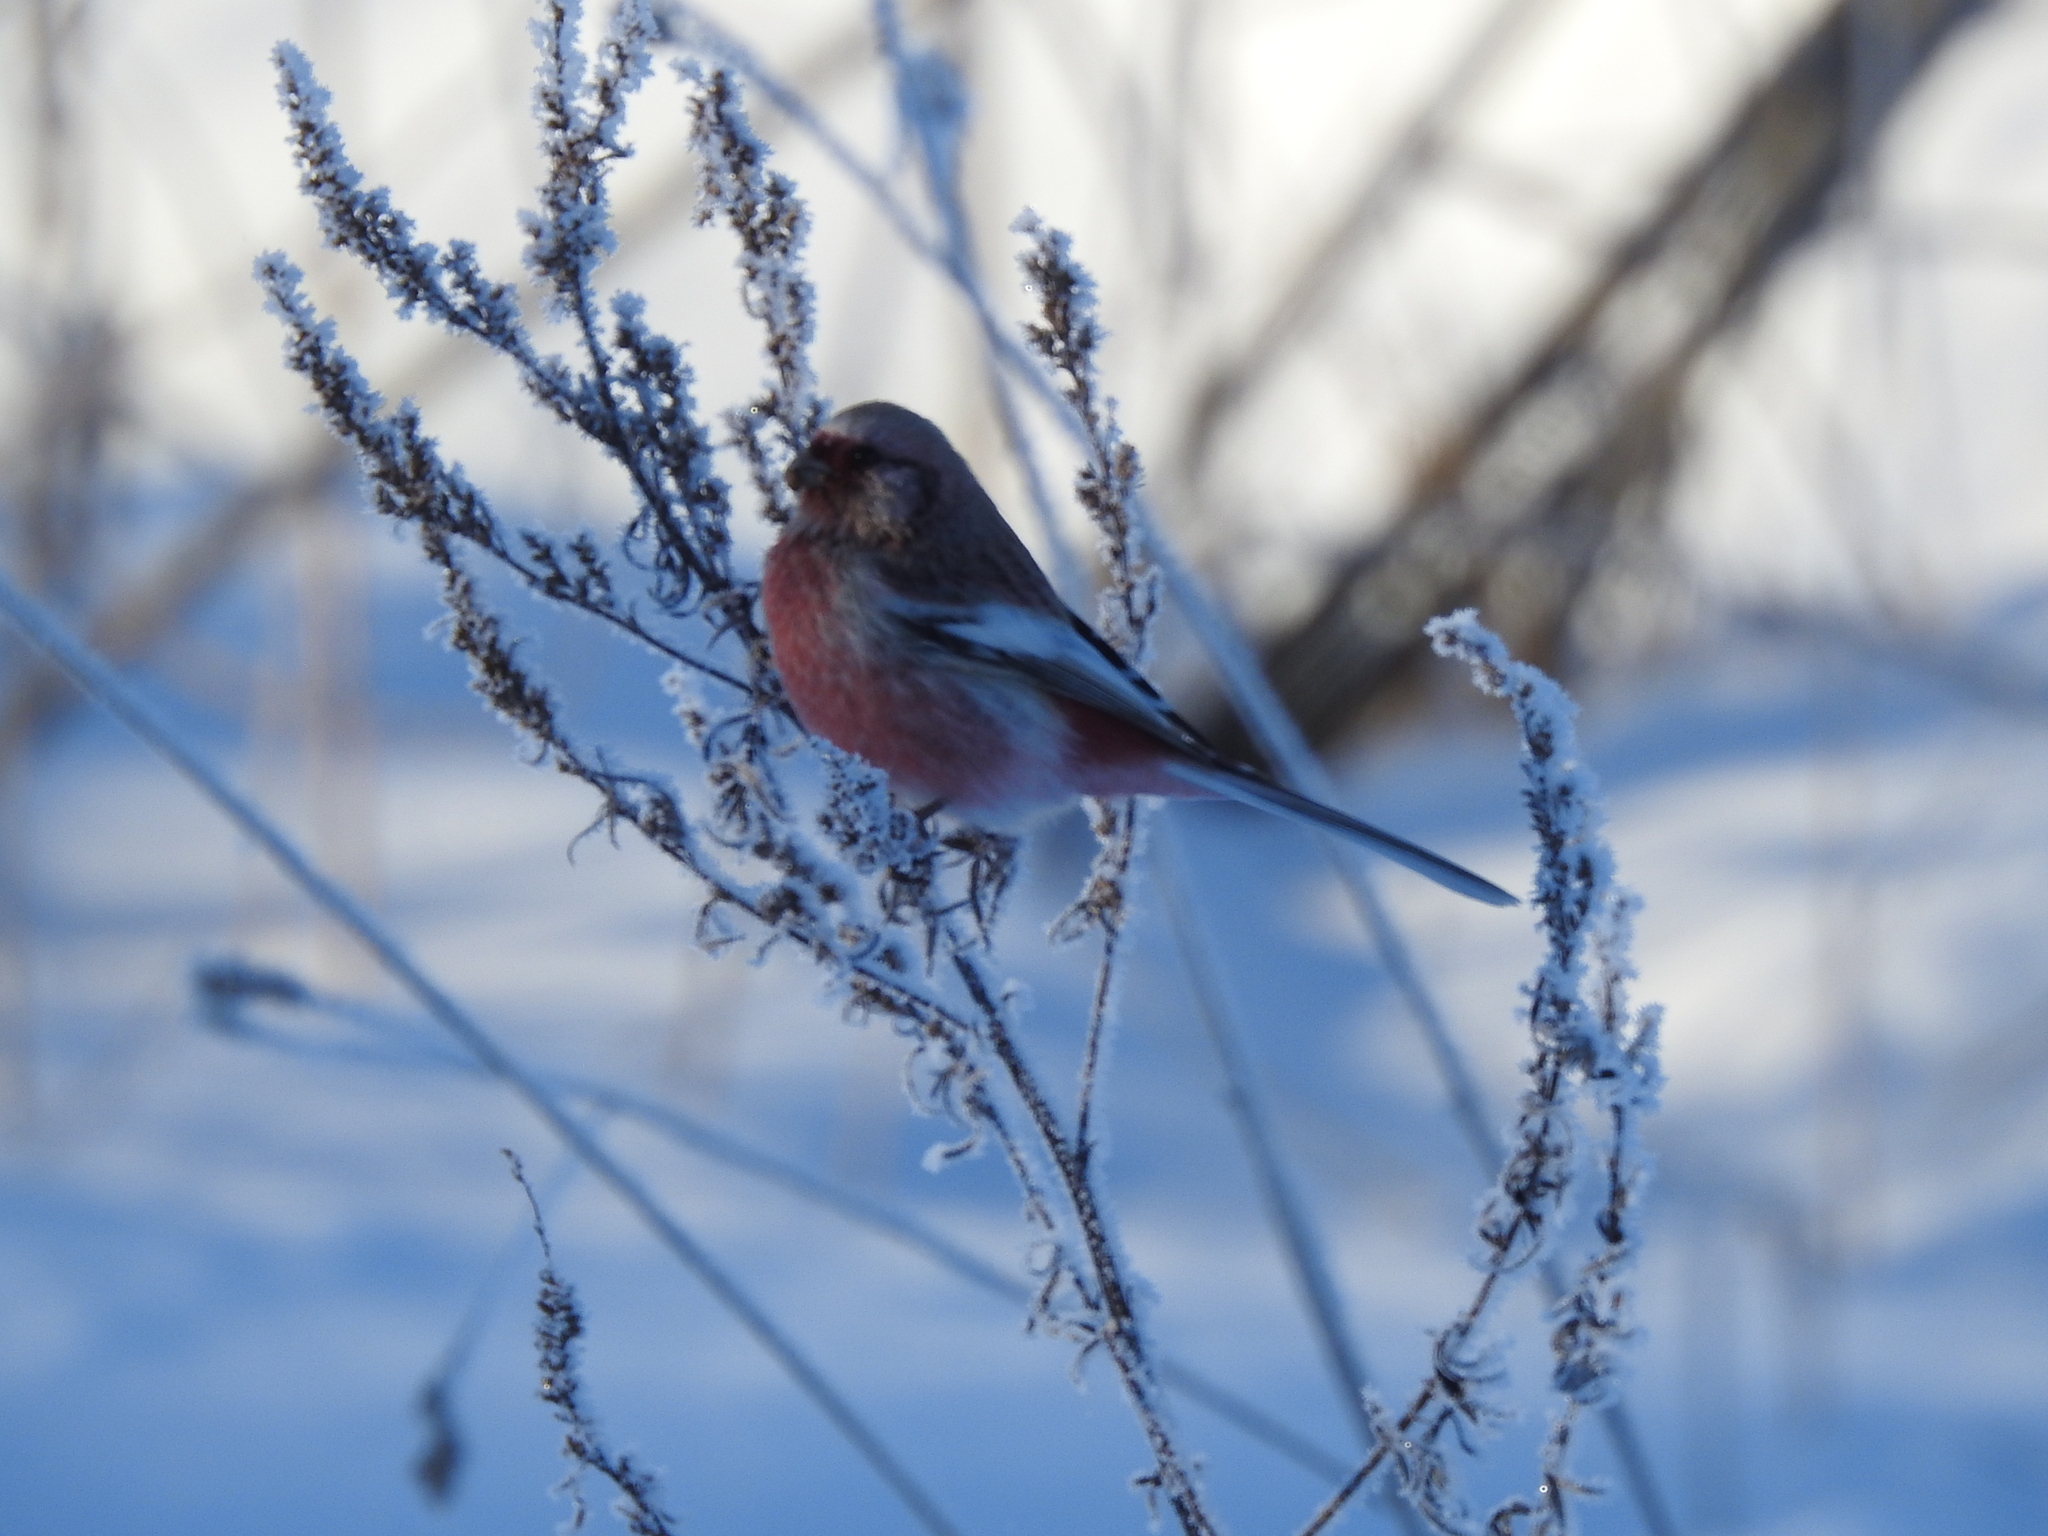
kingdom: Animalia
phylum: Chordata
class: Aves
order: Passeriformes
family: Fringillidae
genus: Carpodacus
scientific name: Carpodacus sibiricus
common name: Long-tailed rosefinch
